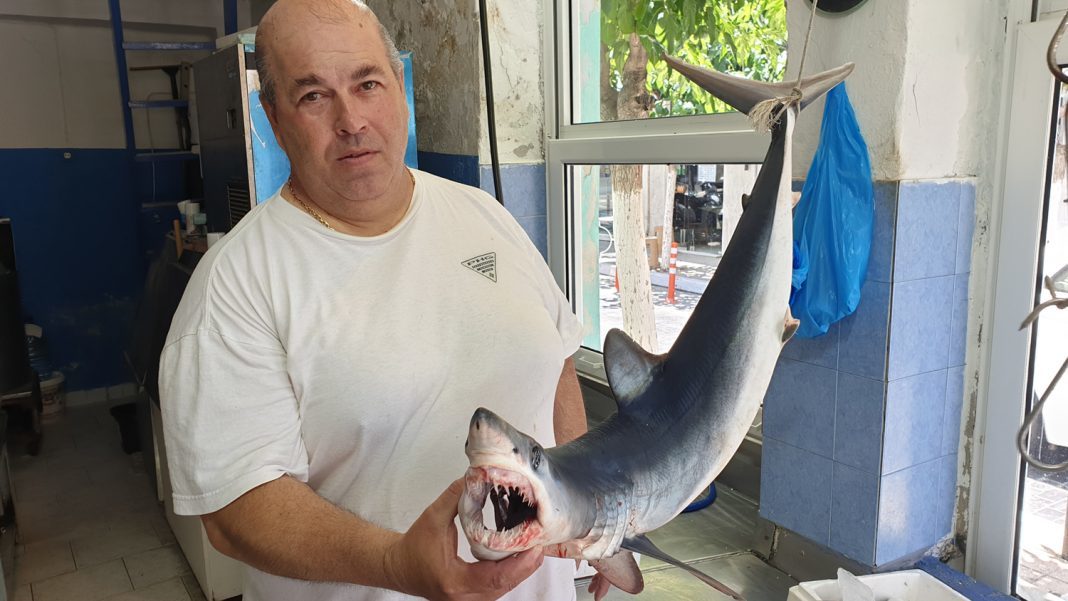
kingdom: Animalia
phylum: Chordata
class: Elasmobranchii
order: Lamniformes
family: Lamnidae
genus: Isurus
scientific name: Isurus oxyrinchus
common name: Shortfin mako
